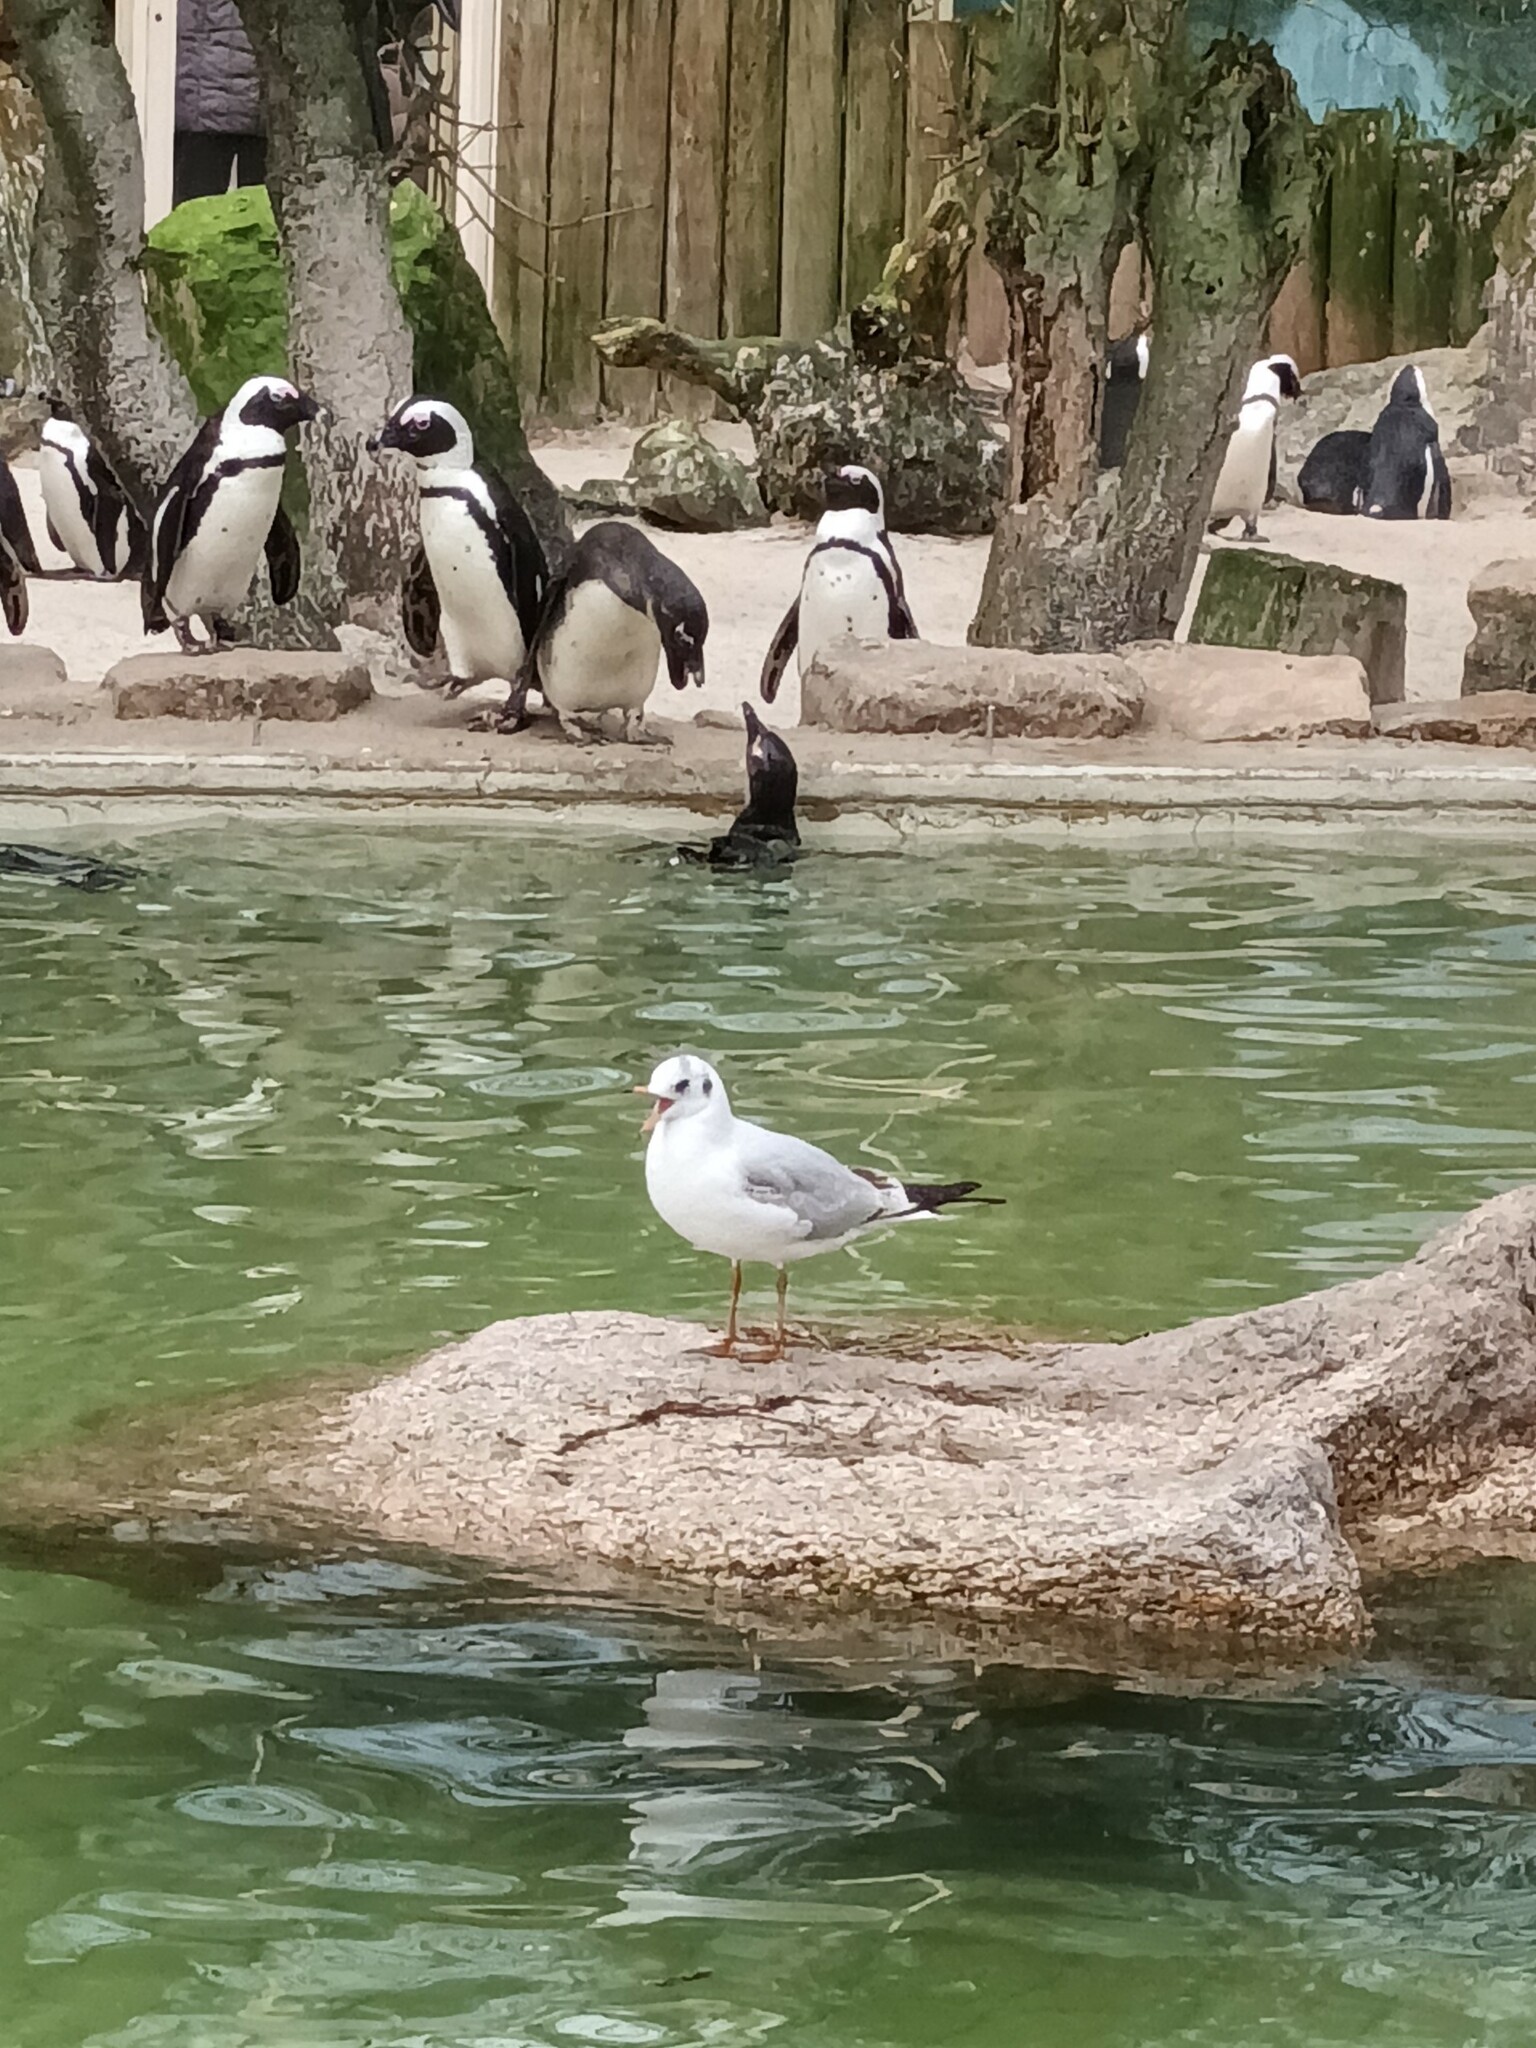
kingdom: Animalia
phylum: Chordata
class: Aves
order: Charadriiformes
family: Laridae
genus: Chroicocephalus
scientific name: Chroicocephalus ridibundus
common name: Black-headed gull
